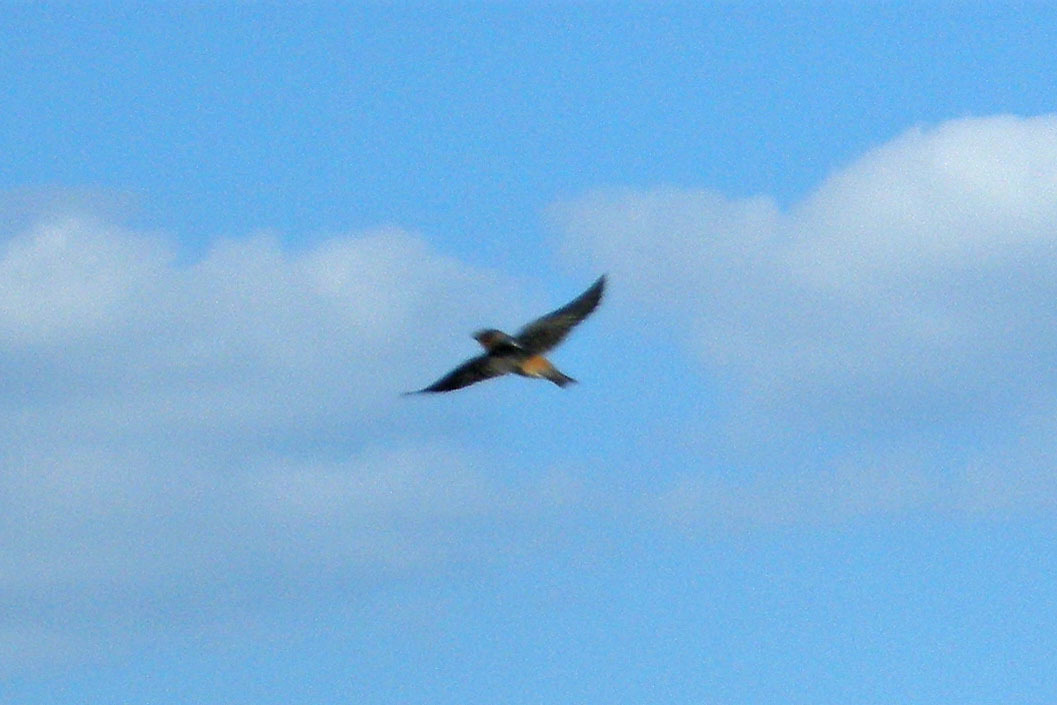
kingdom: Animalia
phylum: Chordata
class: Aves
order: Passeriformes
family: Hirundinidae
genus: Petrochelidon
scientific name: Petrochelidon pyrrhonota
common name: American cliff swallow
